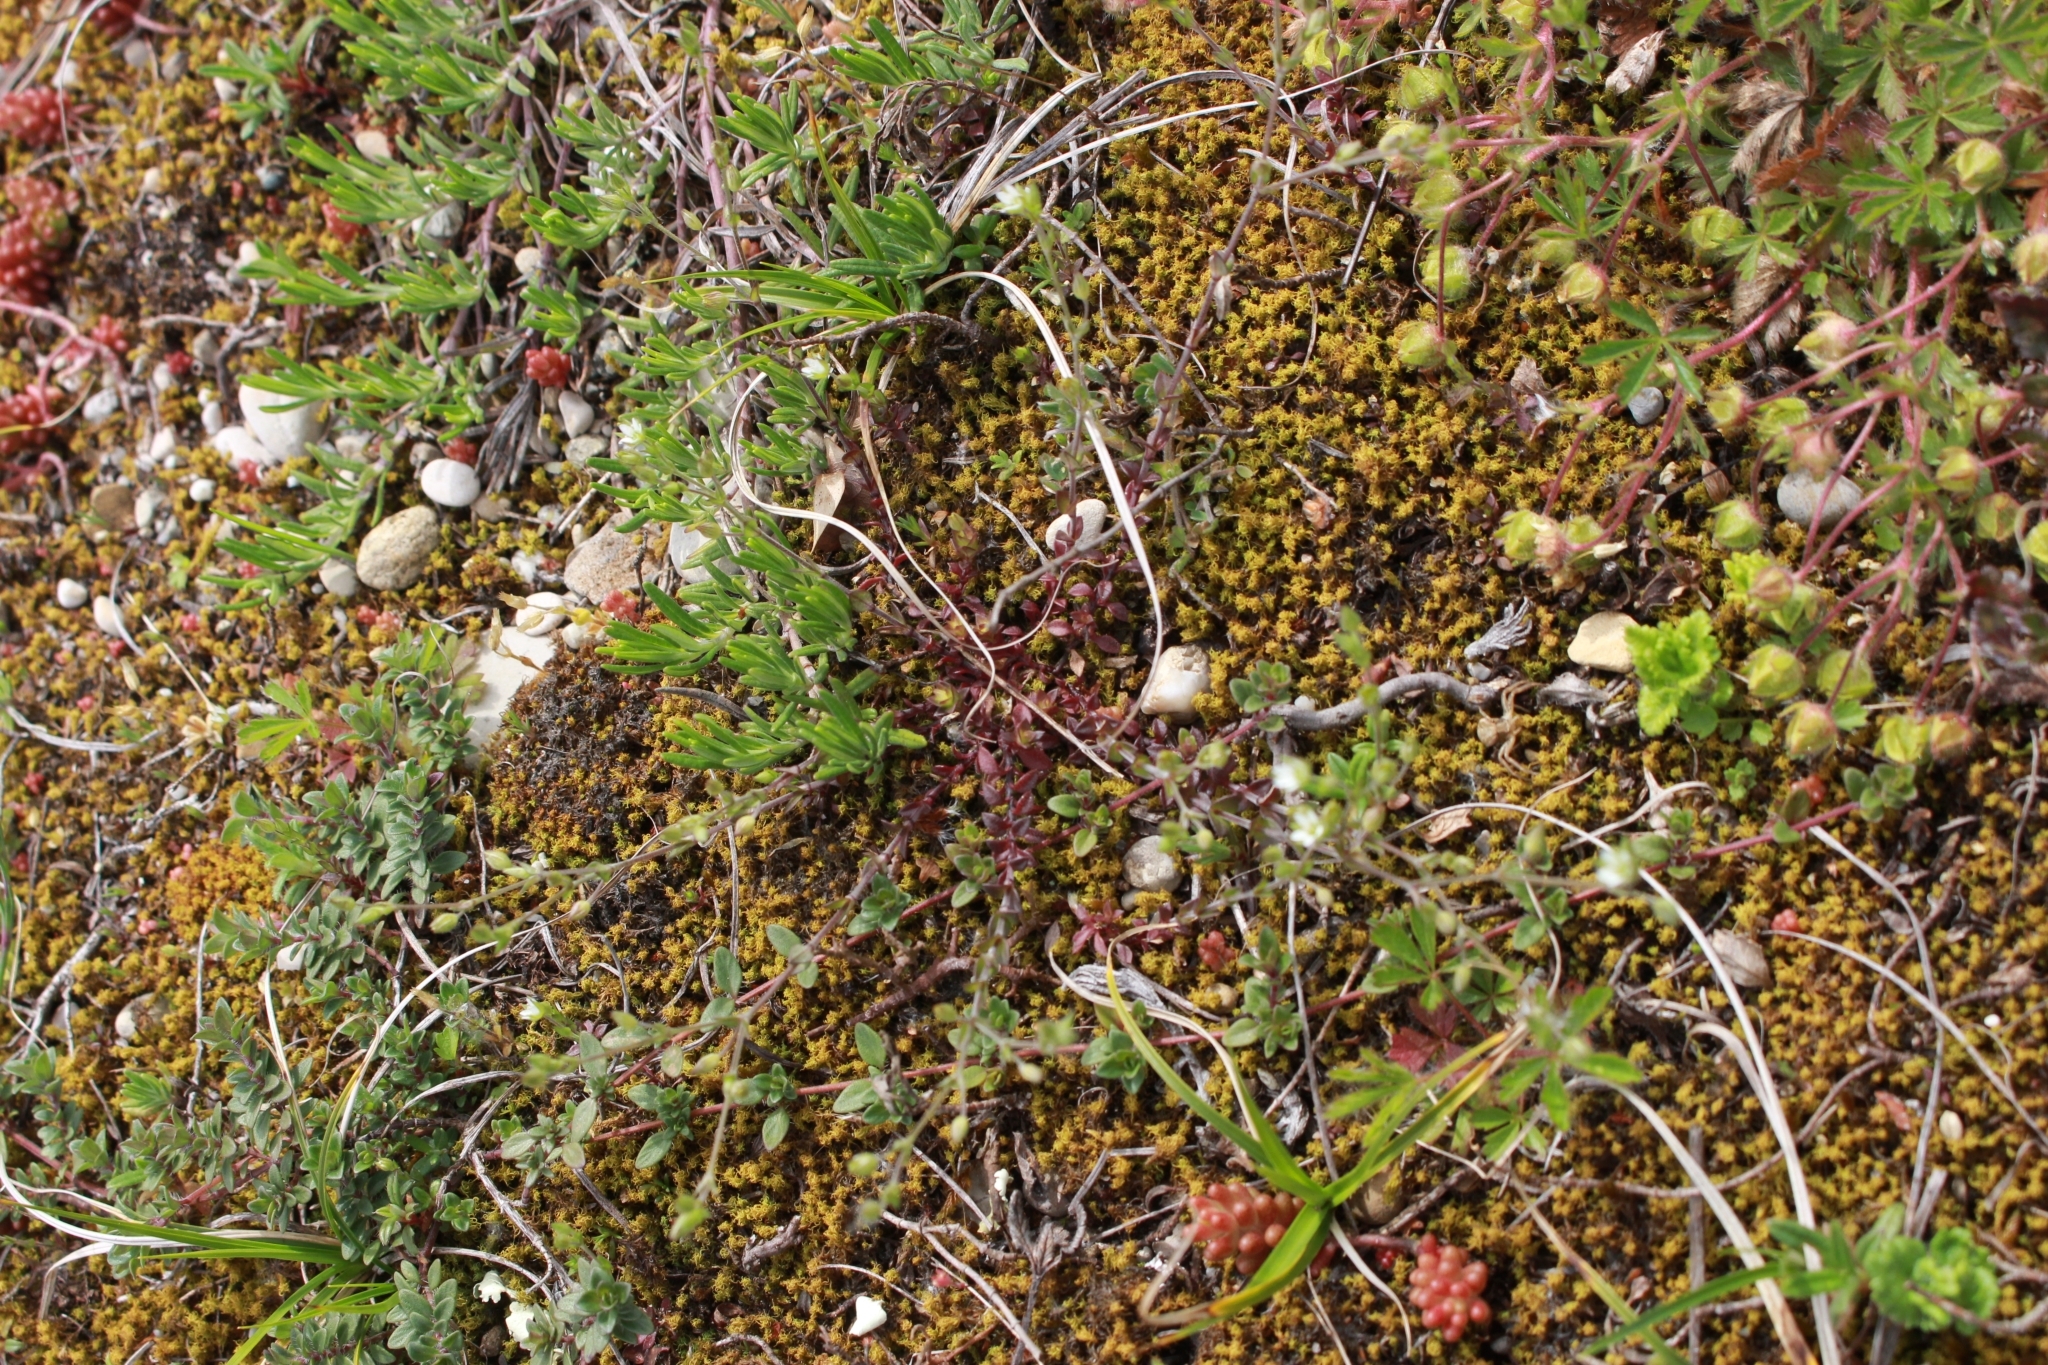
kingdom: Plantae
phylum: Tracheophyta
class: Magnoliopsida
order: Caryophyllales
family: Caryophyllaceae
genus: Arenaria
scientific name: Arenaria serpyllifolia
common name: Thyme-leaved sandwort
